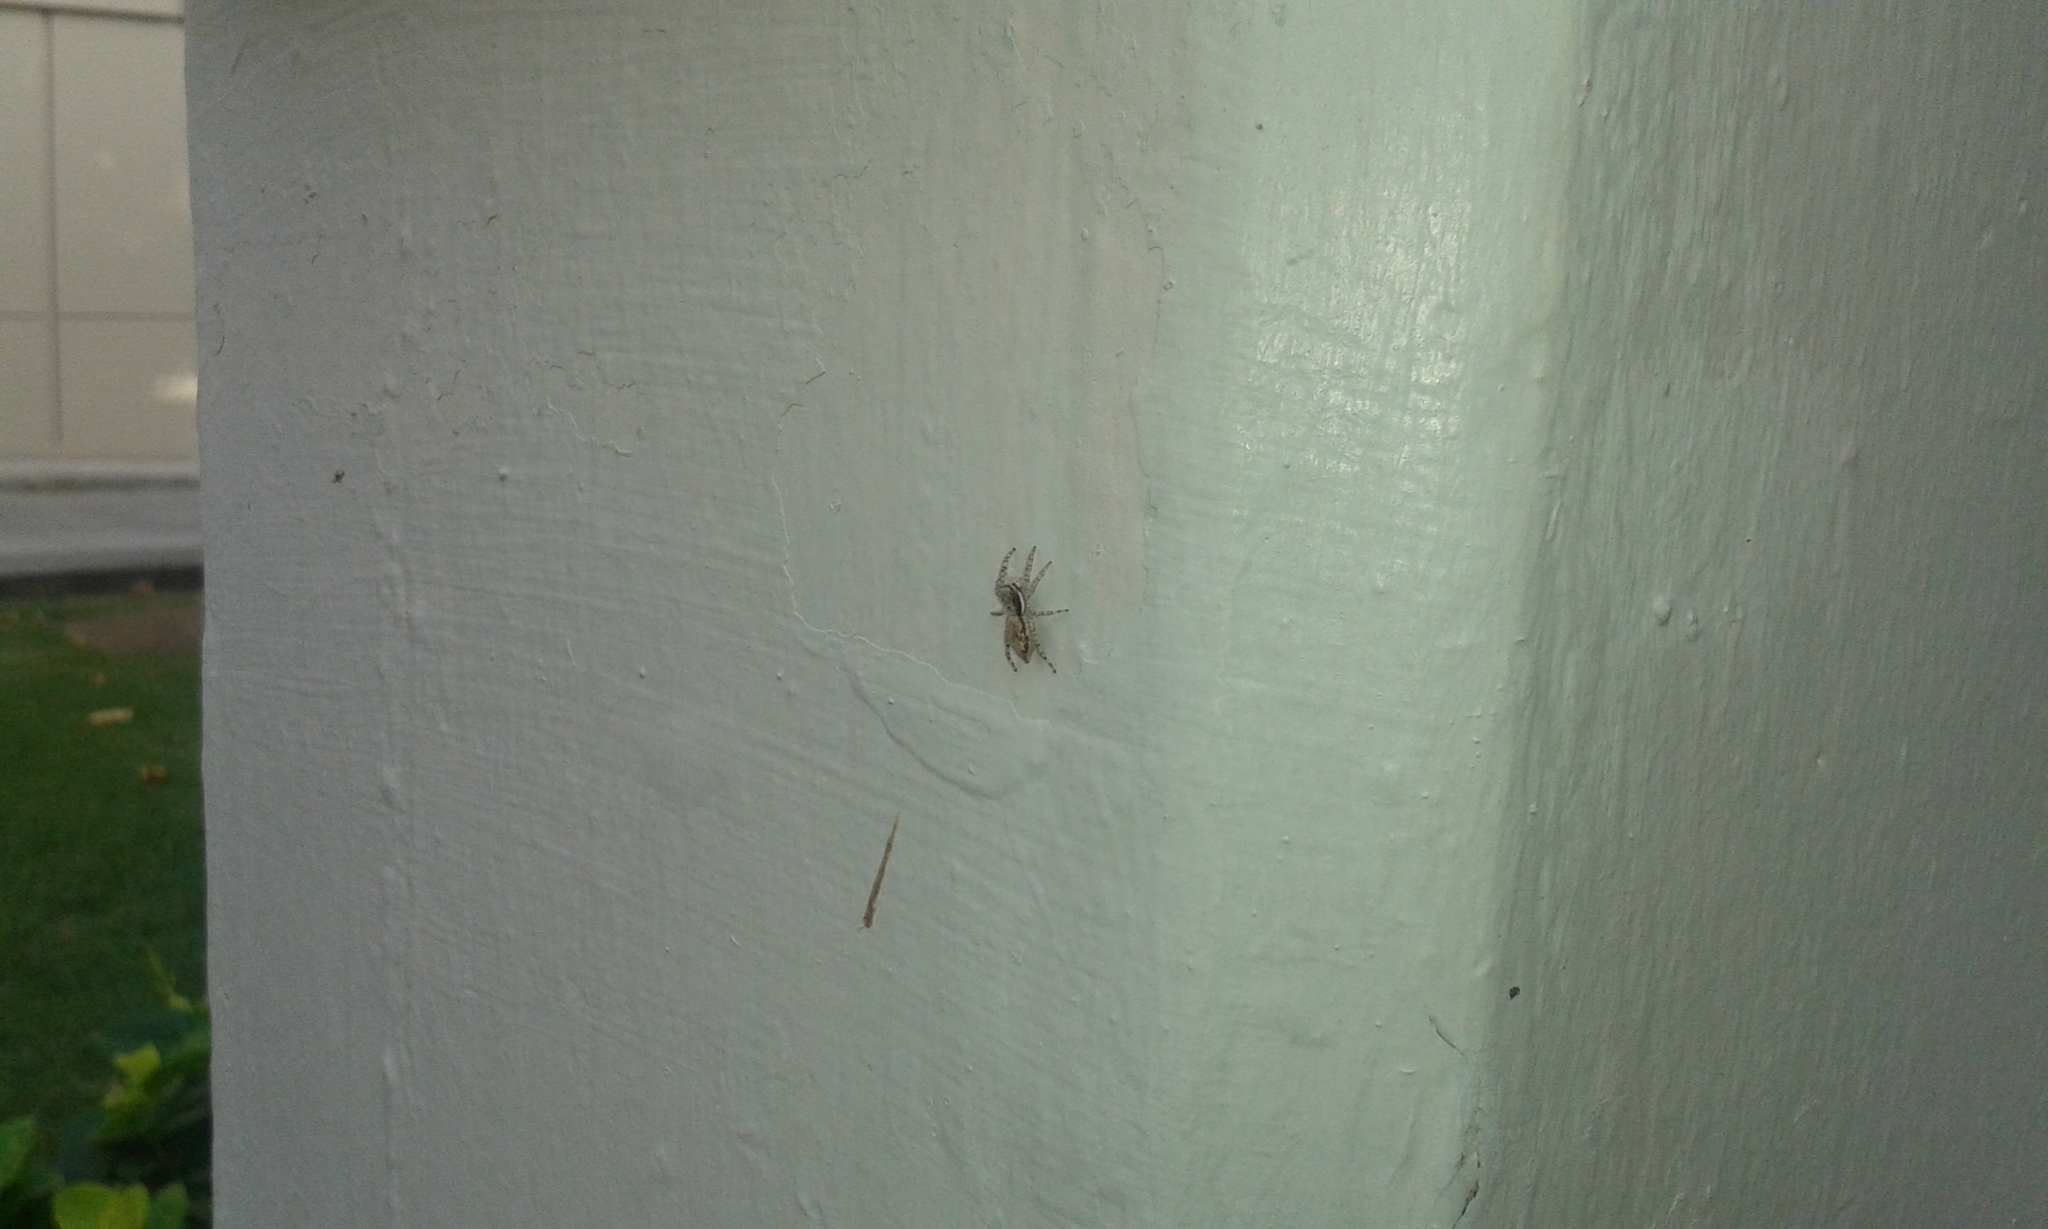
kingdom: Animalia
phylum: Arthropoda
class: Arachnida
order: Araneae
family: Salticidae
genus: Menemerus
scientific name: Menemerus bivittatus
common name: Gray wall jumper
